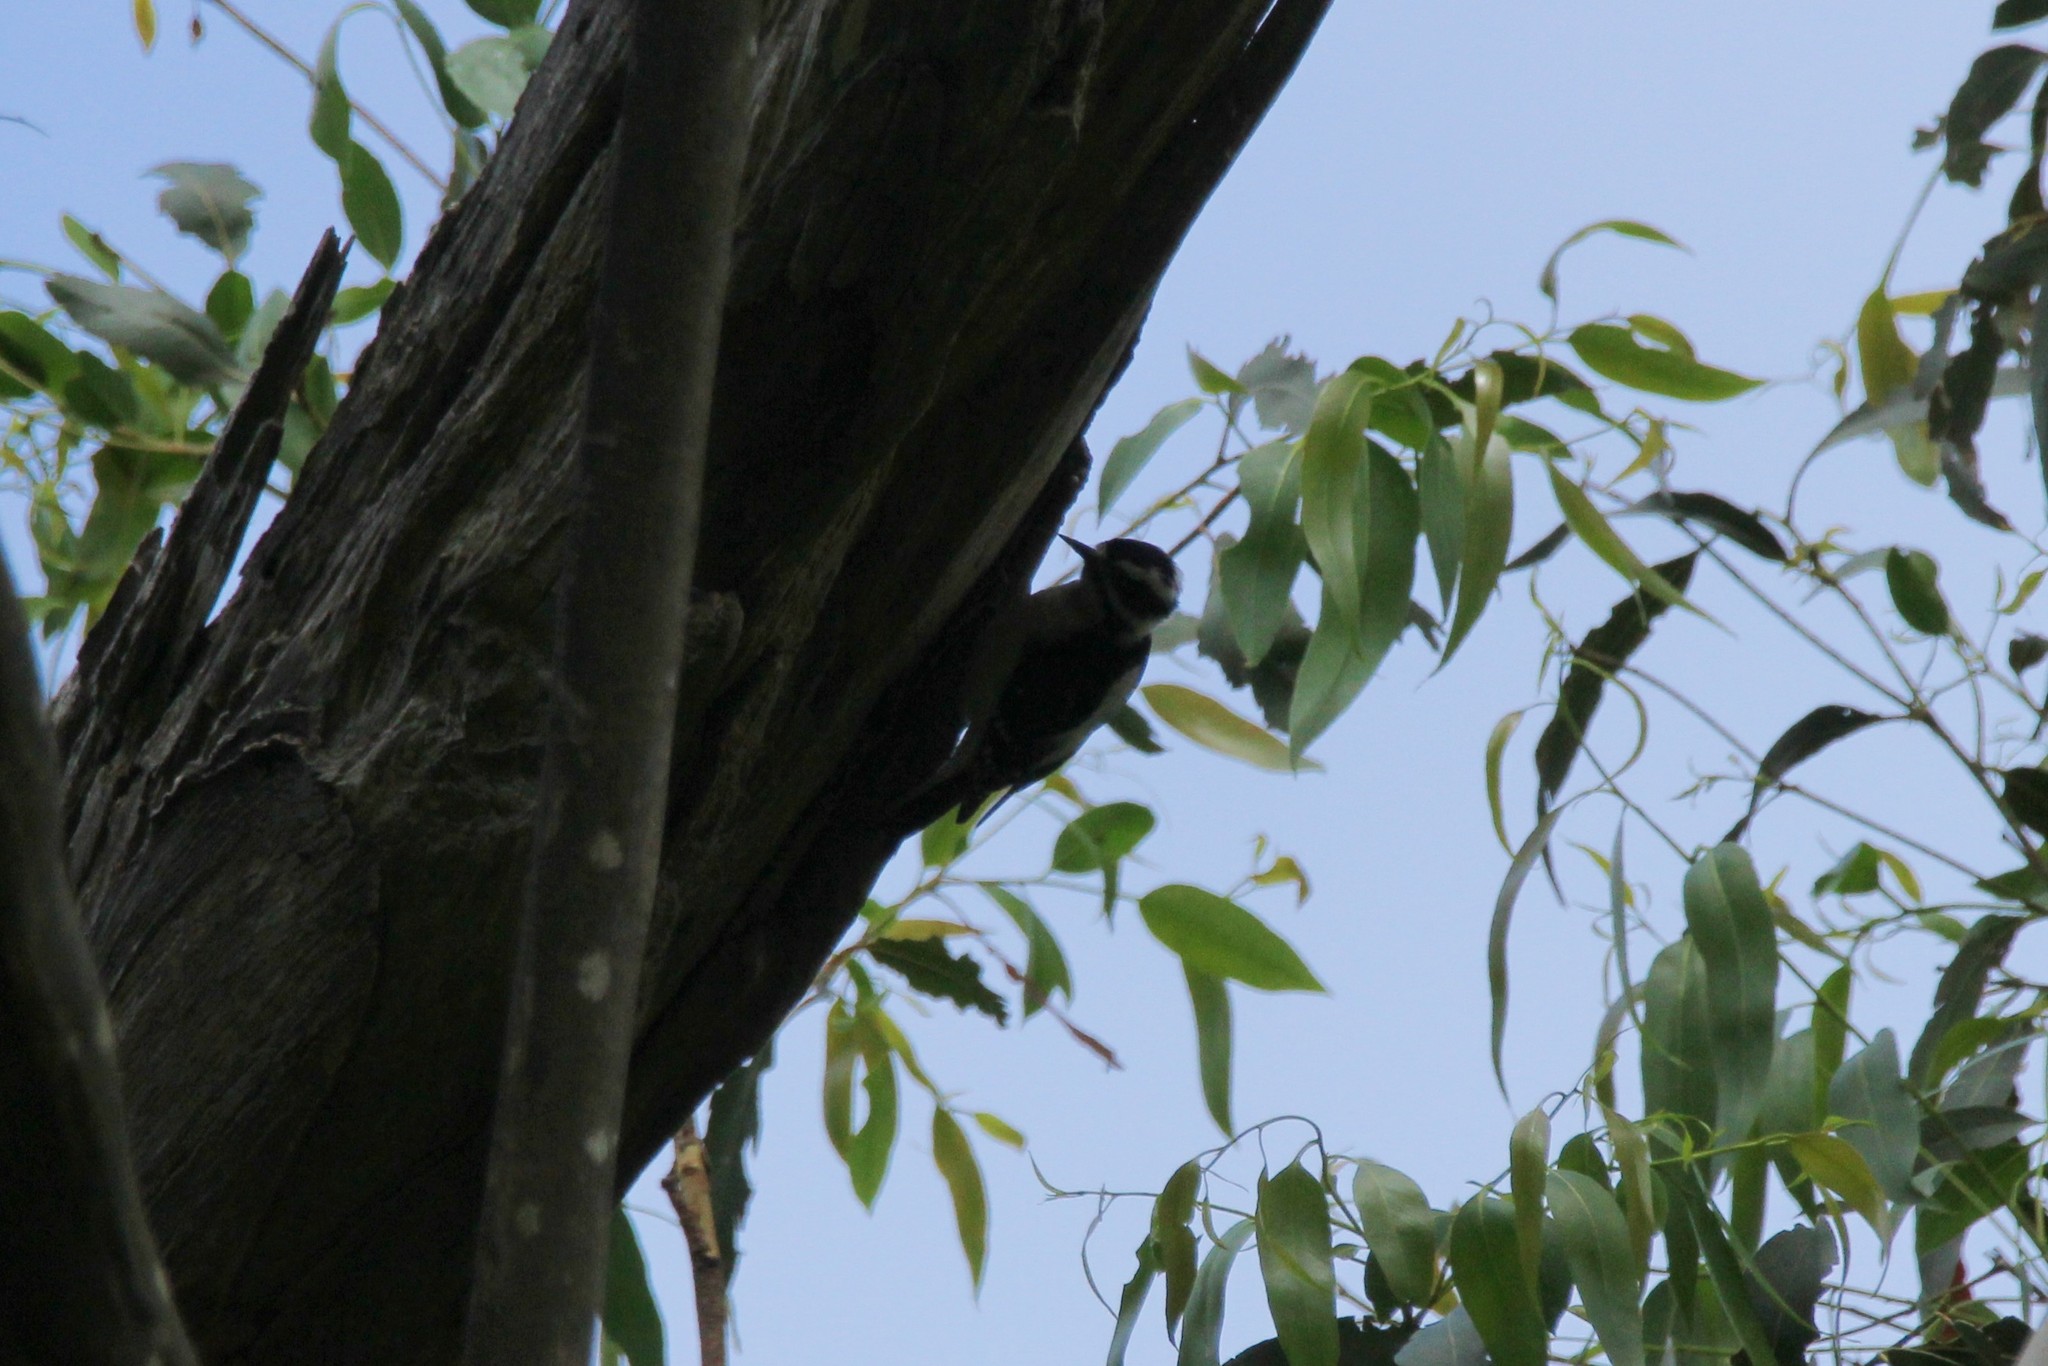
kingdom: Animalia
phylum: Chordata
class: Aves
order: Piciformes
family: Picidae
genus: Dryobates
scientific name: Dryobates pubescens
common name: Downy woodpecker
